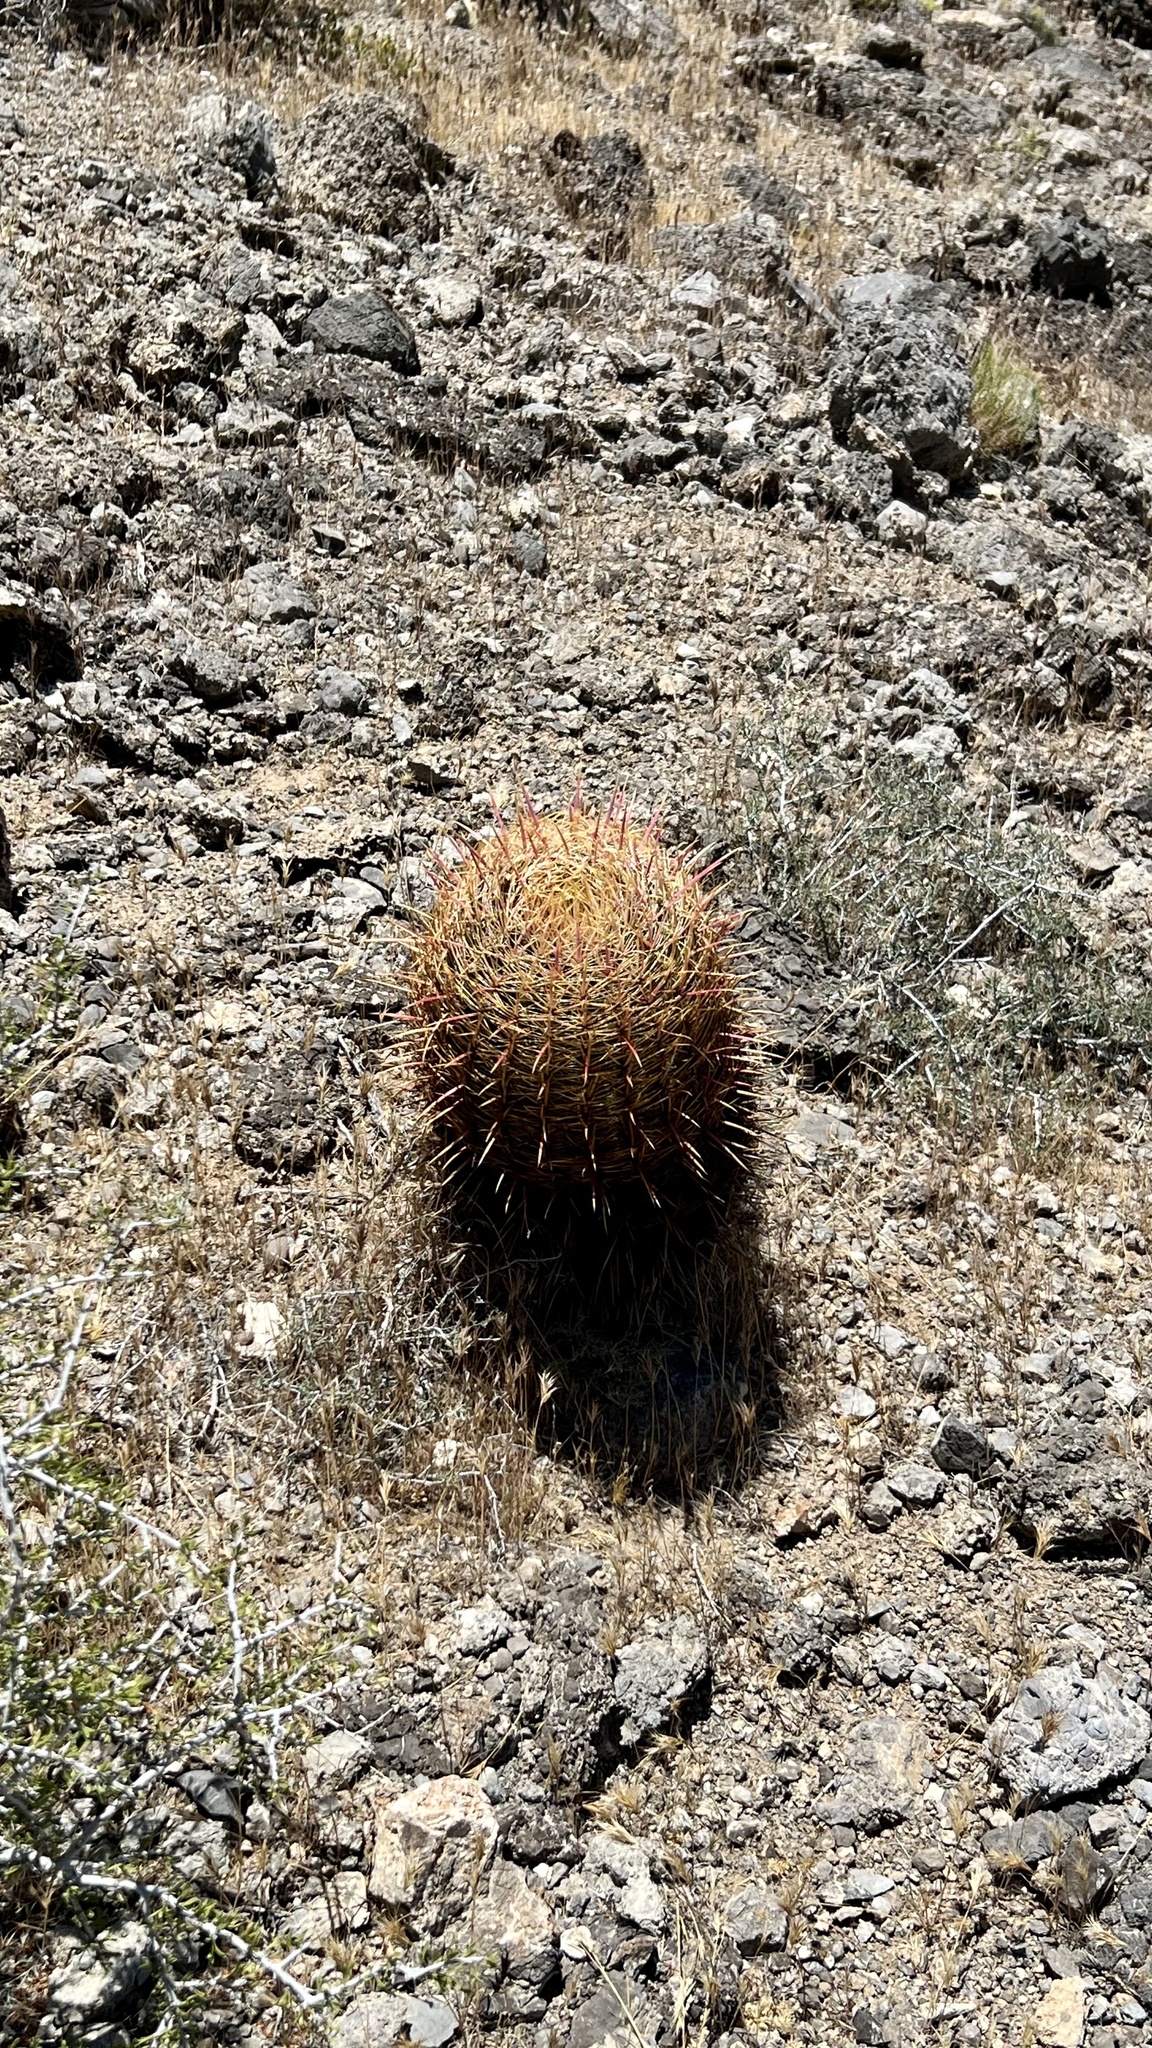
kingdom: Plantae
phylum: Tracheophyta
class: Magnoliopsida
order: Caryophyllales
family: Cactaceae
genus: Ferocactus
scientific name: Ferocactus cylindraceus
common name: California barrel cactus
